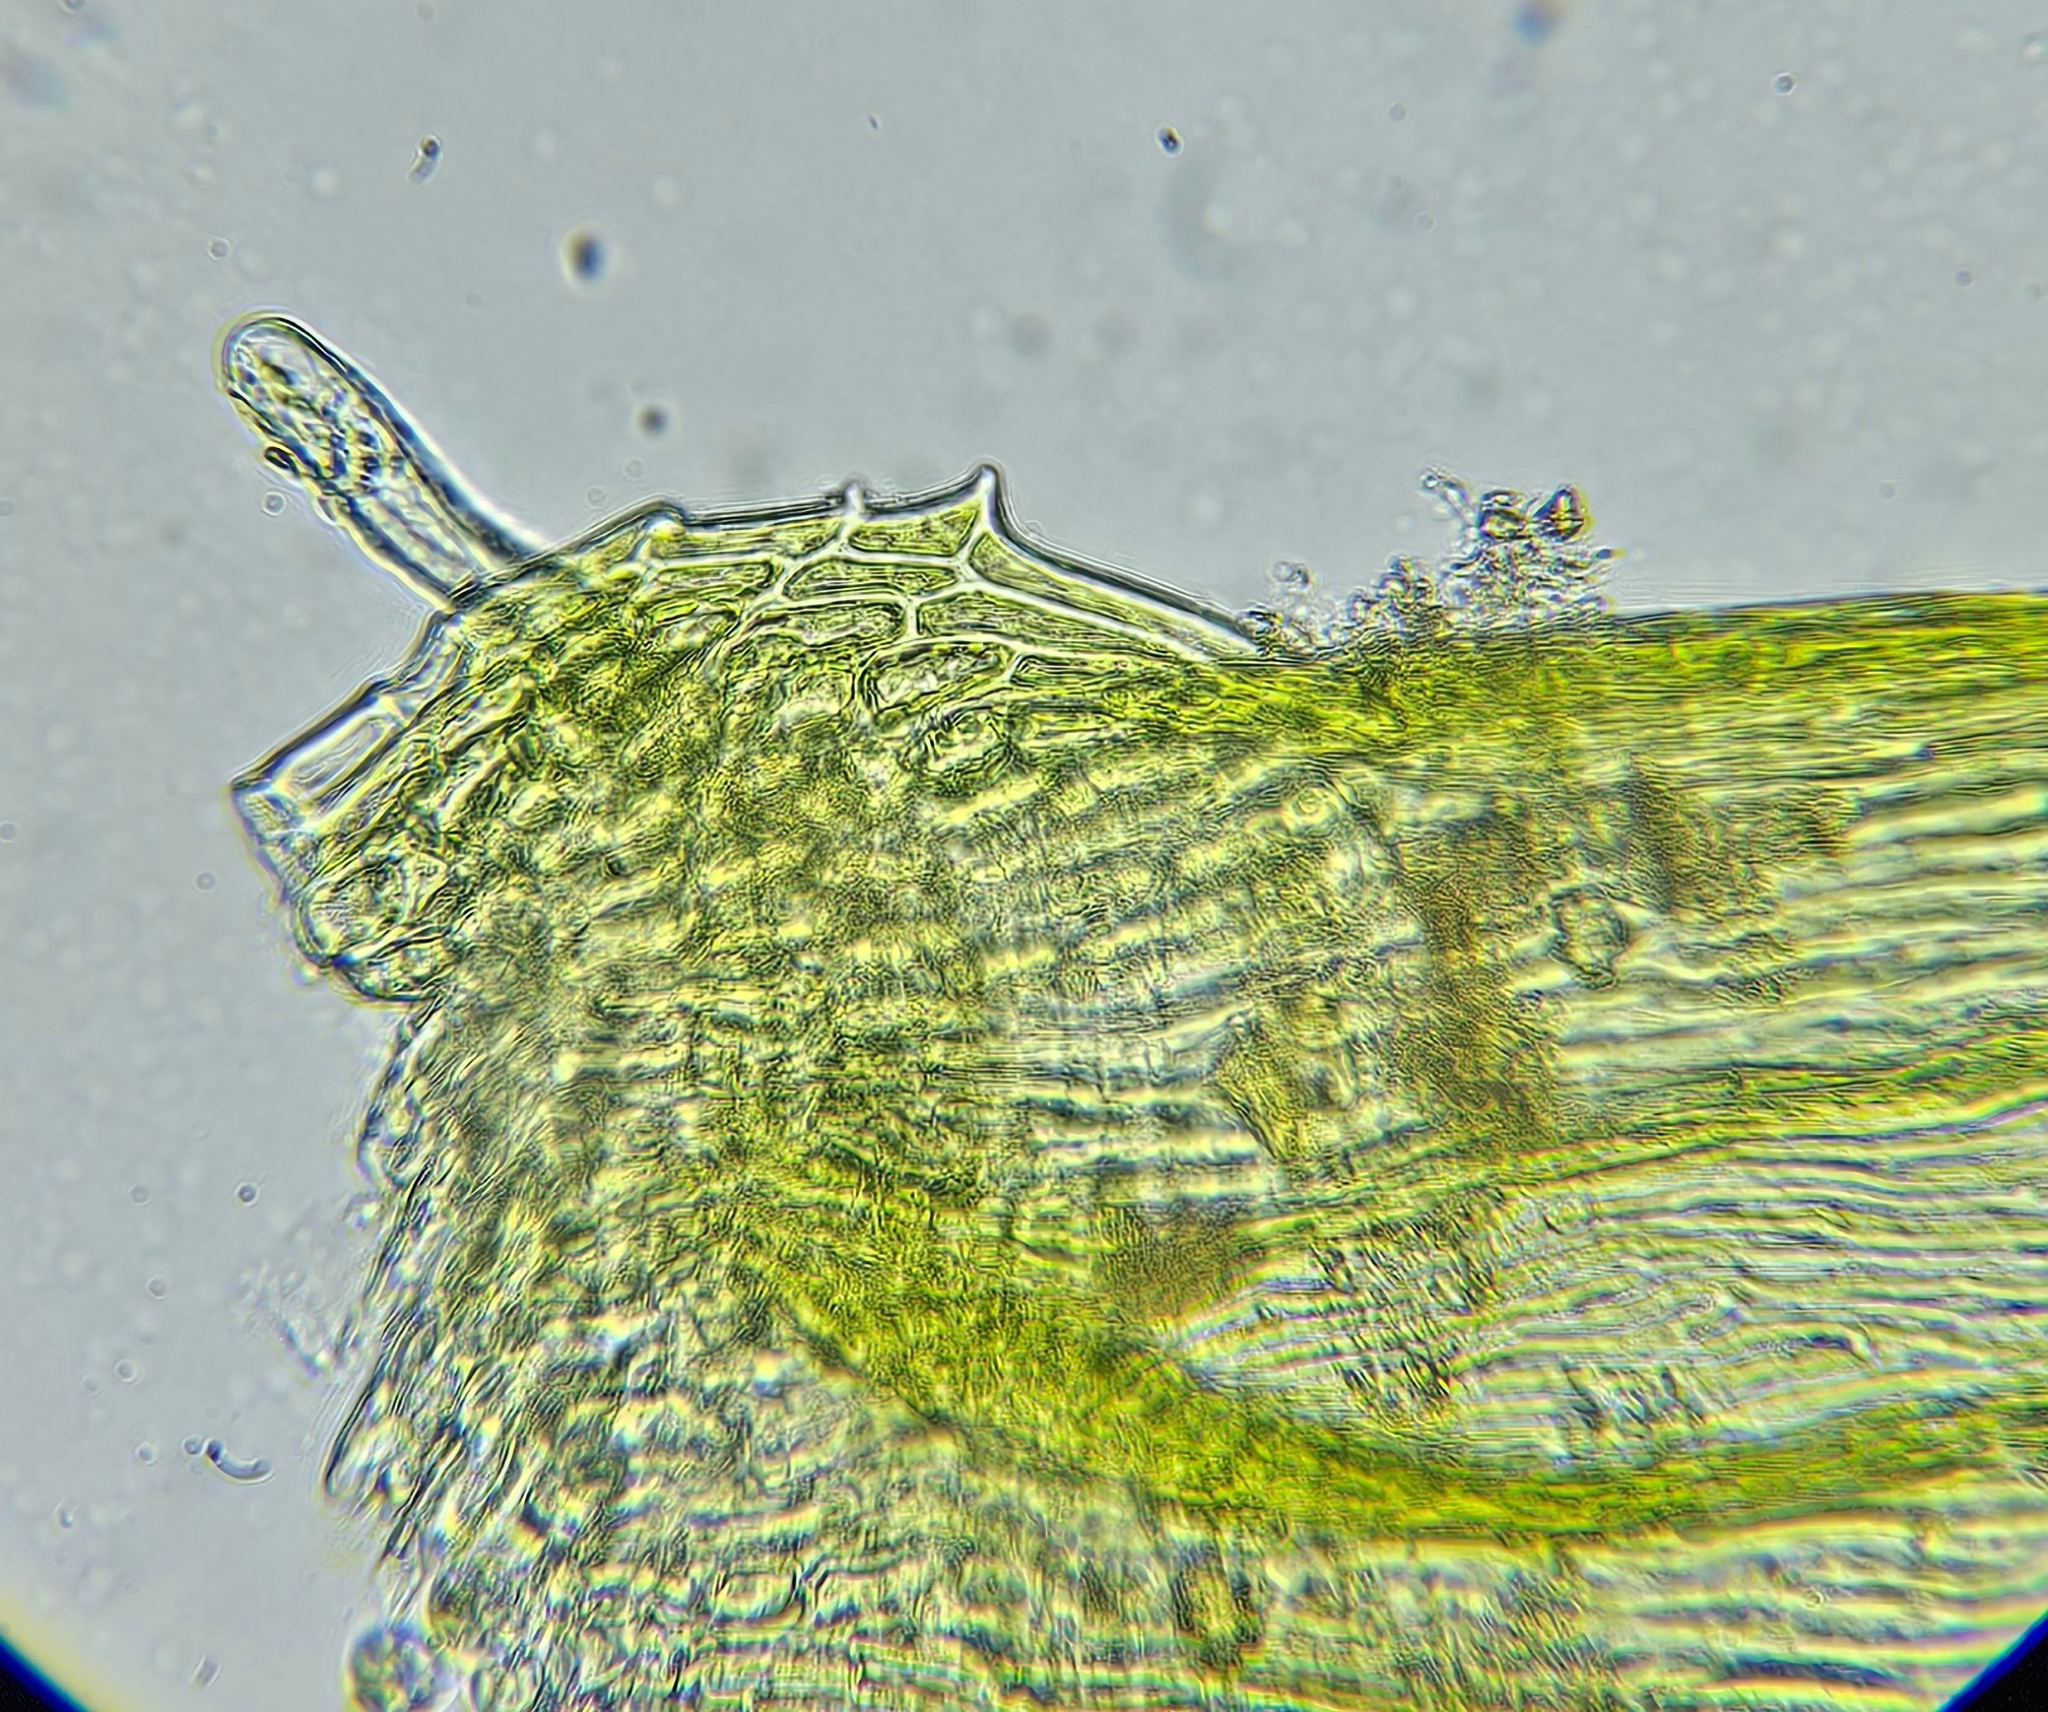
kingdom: Plantae
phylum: Bryophyta
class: Bryopsida
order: Hypnales
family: Brachytheciaceae
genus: Homalothecium
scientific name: Homalothecium sericeum
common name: Silky wall feather-moss
